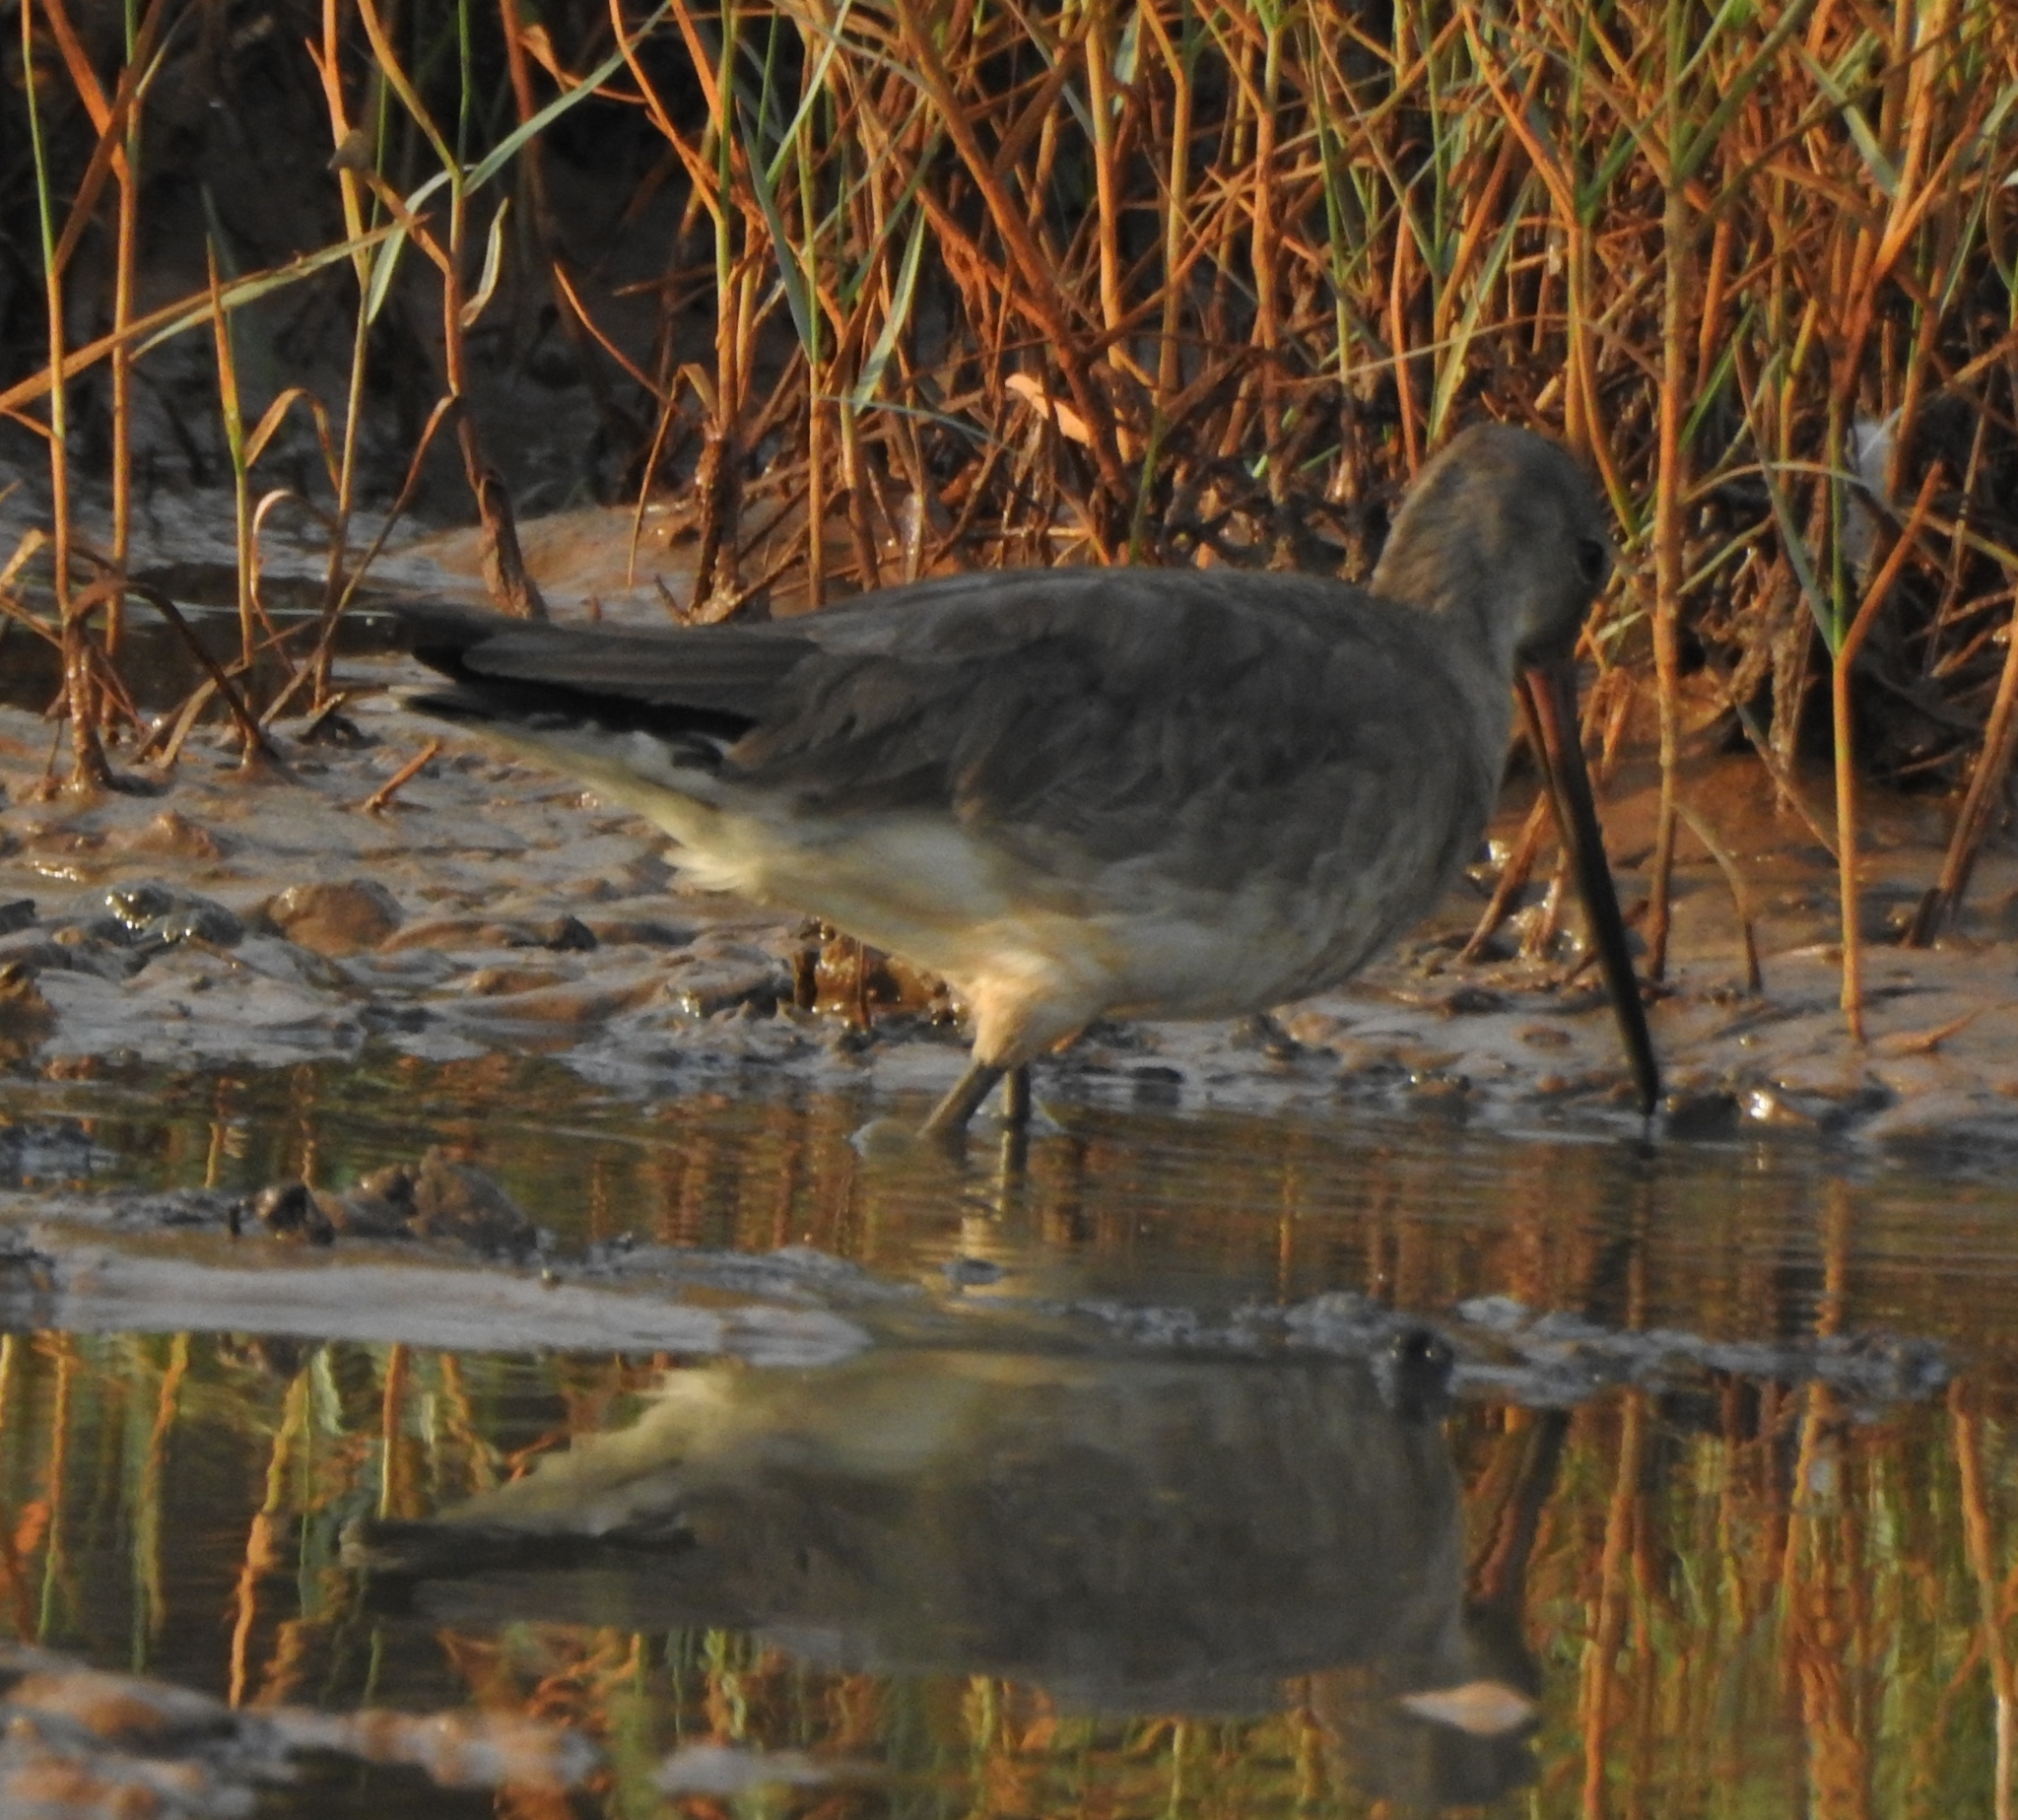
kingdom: Animalia
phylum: Chordata
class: Aves
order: Charadriiformes
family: Scolopacidae
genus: Limosa
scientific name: Limosa limosa
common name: Black-tailed godwit
